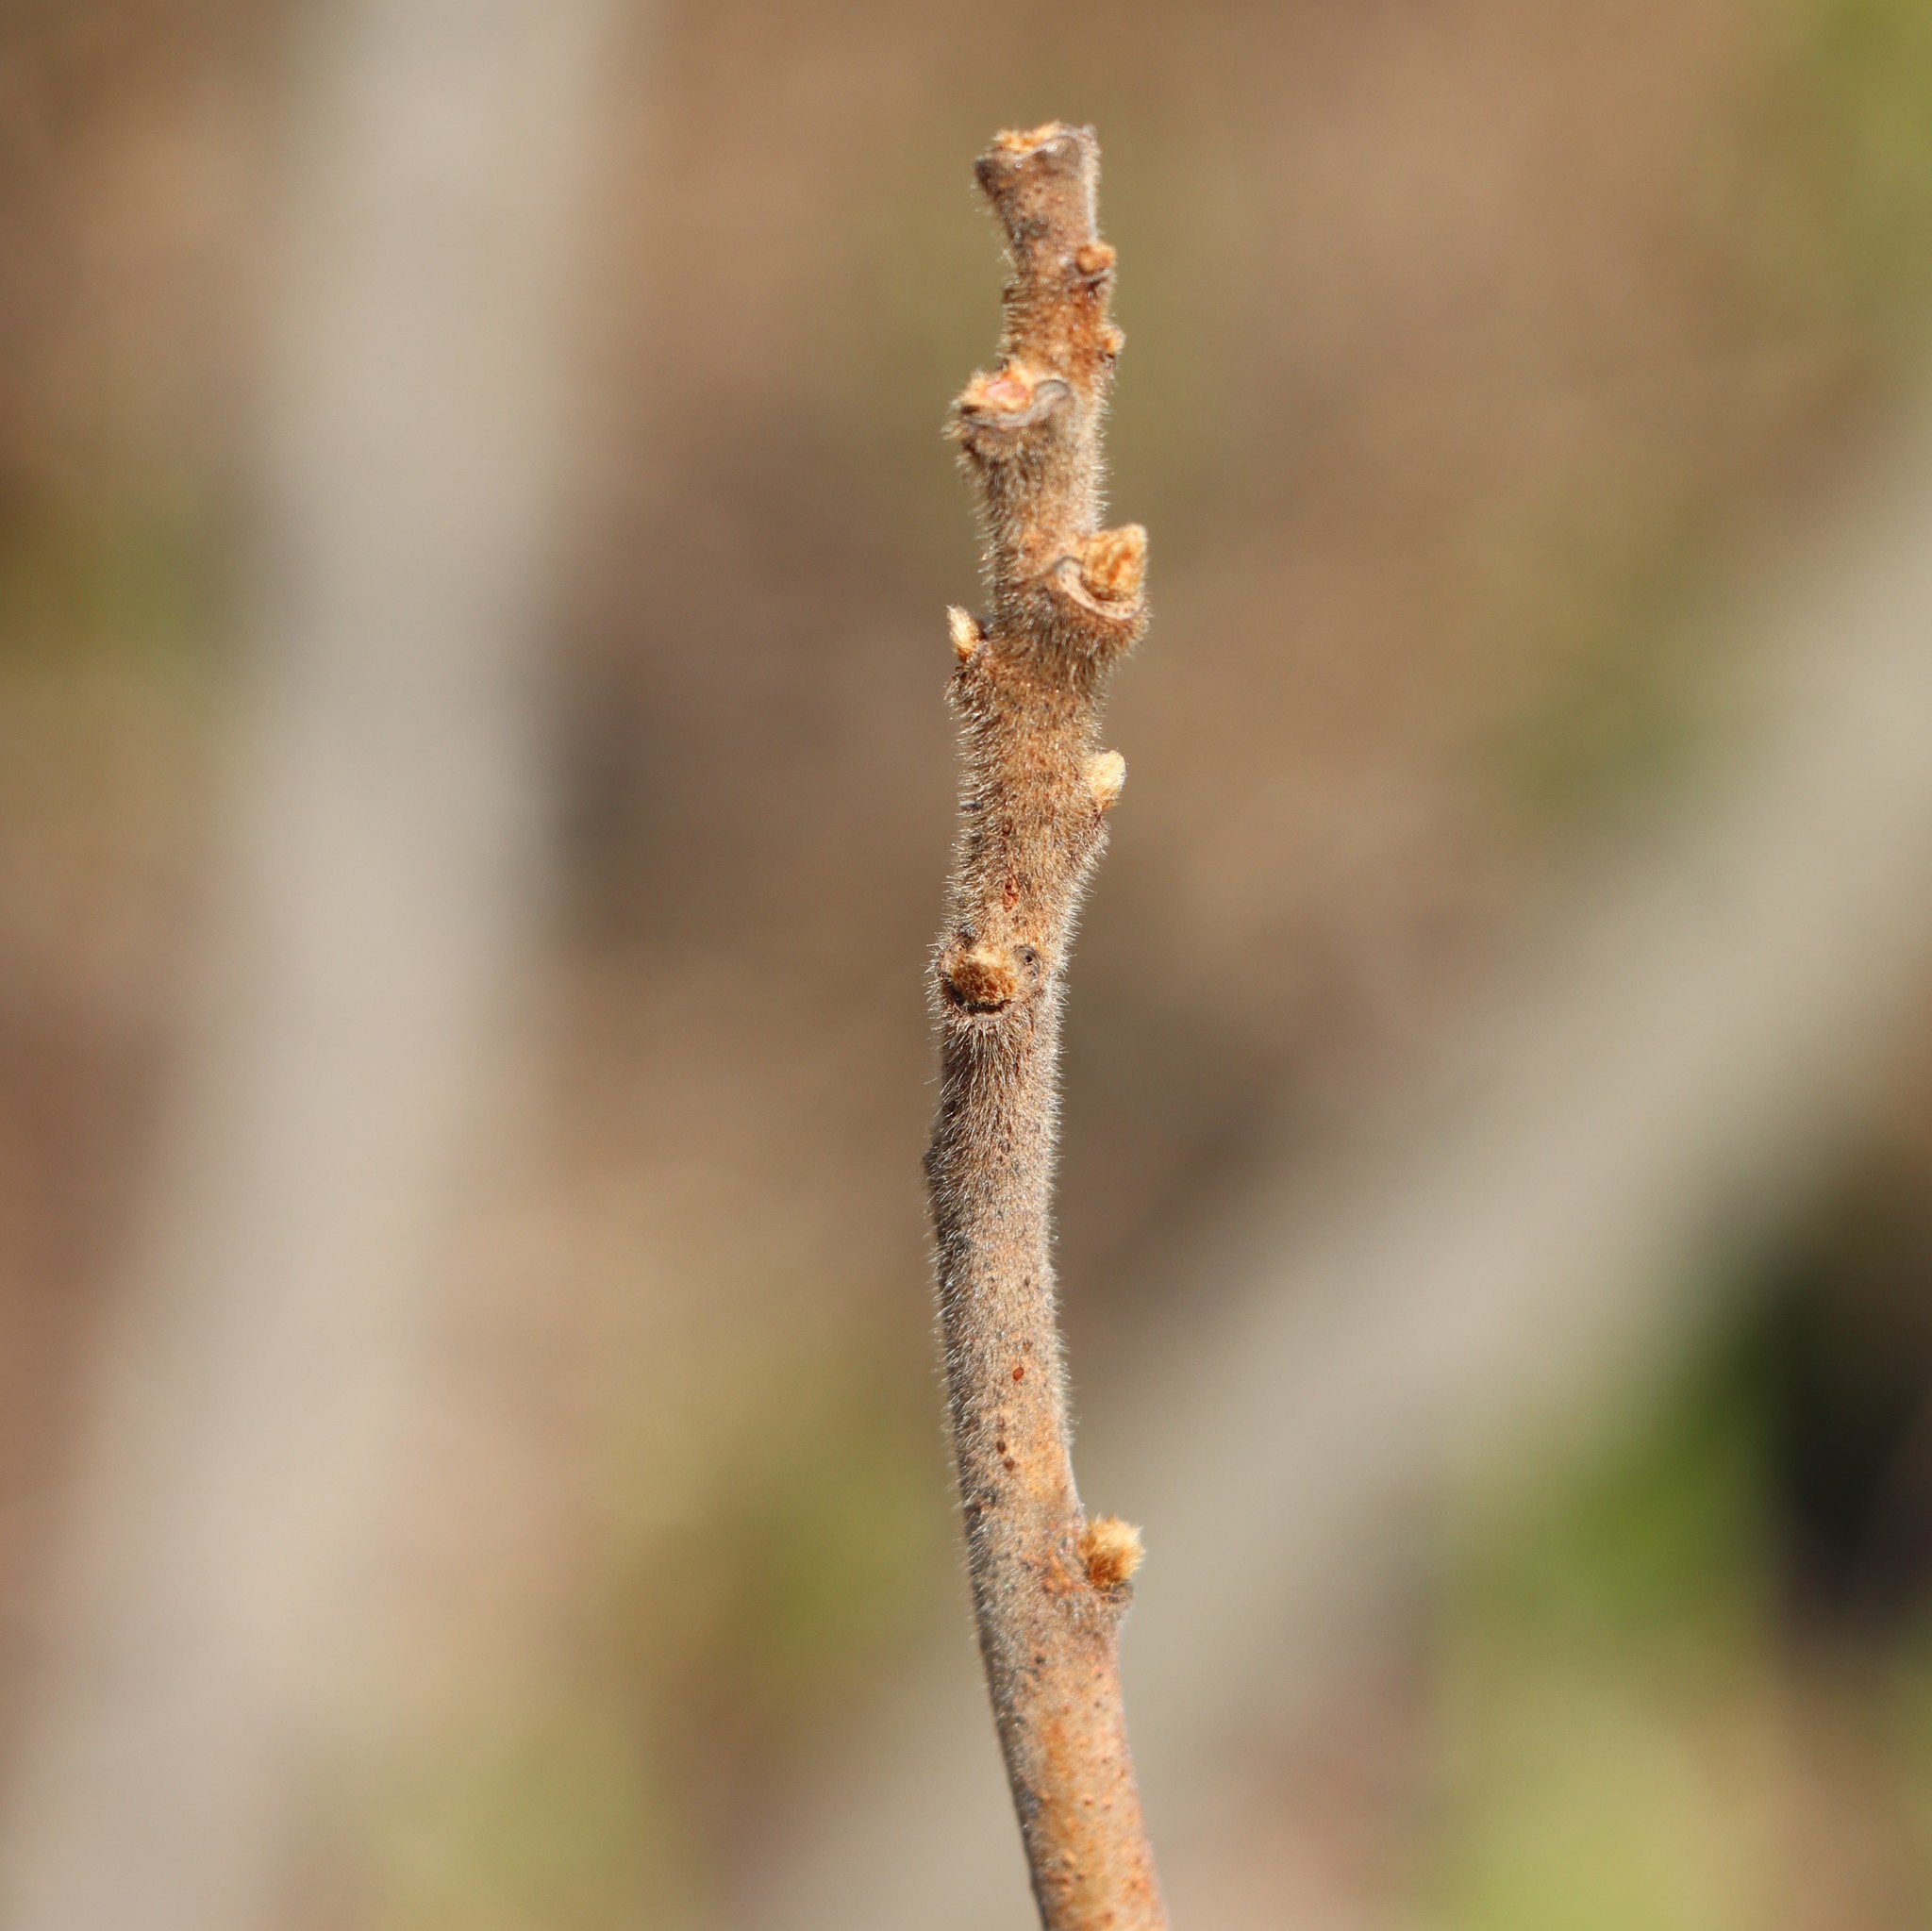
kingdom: Plantae
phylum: Tracheophyta
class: Magnoliopsida
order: Sapindales
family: Anacardiaceae
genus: Rhus
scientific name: Rhus typhina
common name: Staghorn sumac
